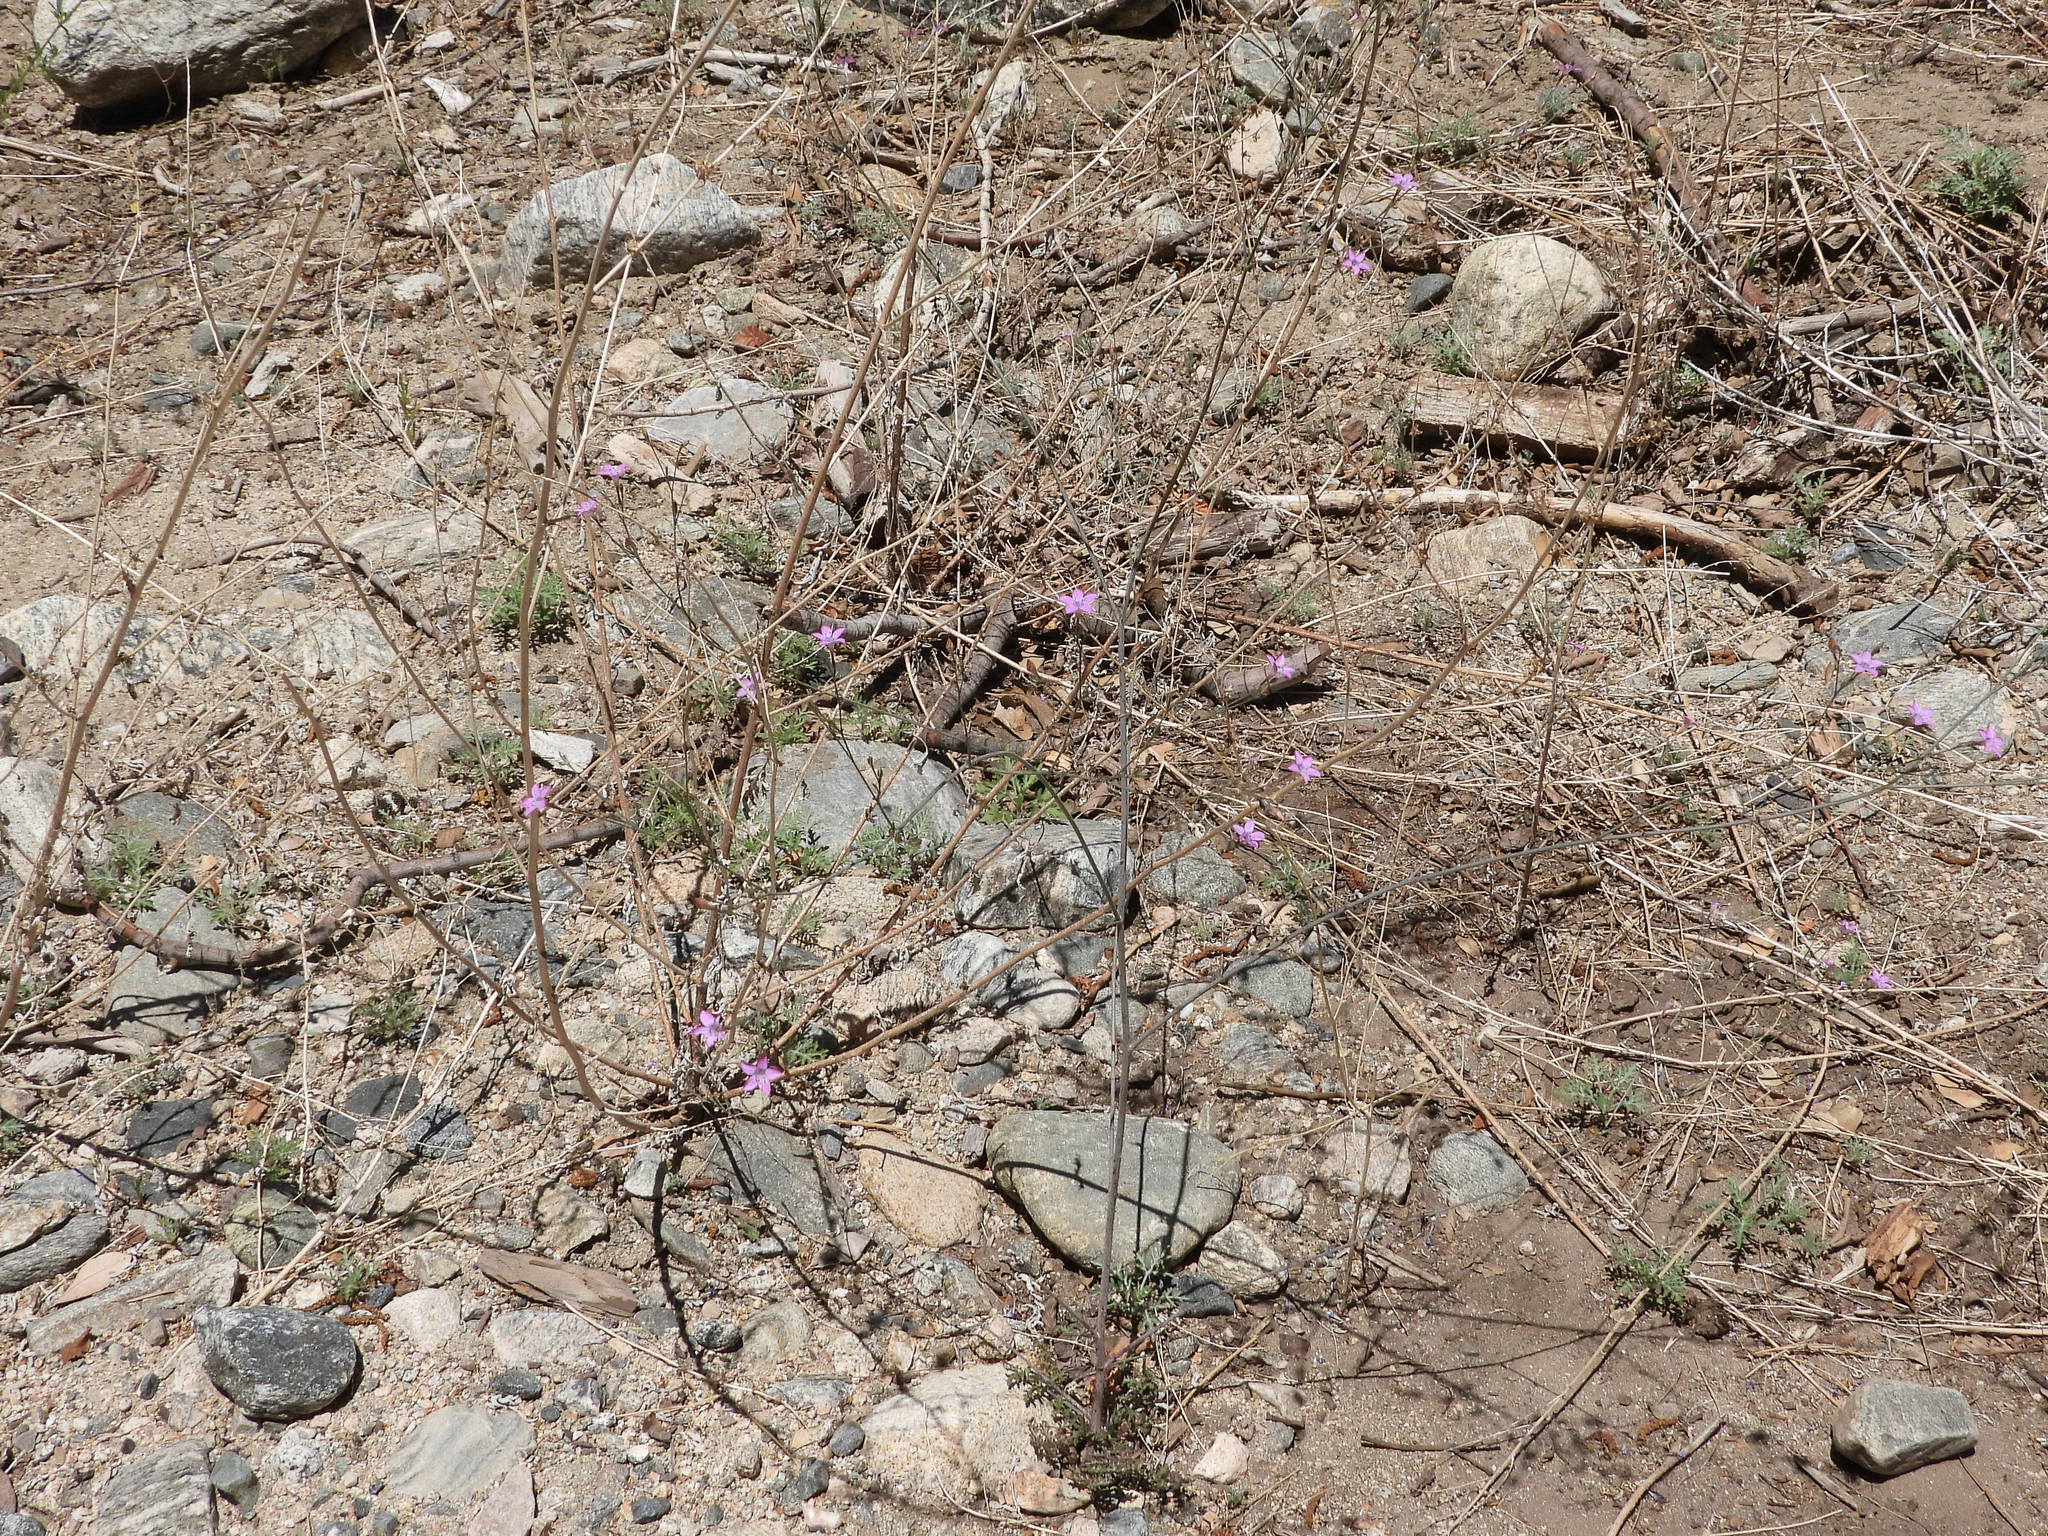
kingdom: Plantae
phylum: Tracheophyta
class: Magnoliopsida
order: Ericales
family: Polemoniaceae
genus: Saltugilia
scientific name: Saltugilia splendens
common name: Grinnell's gilia
